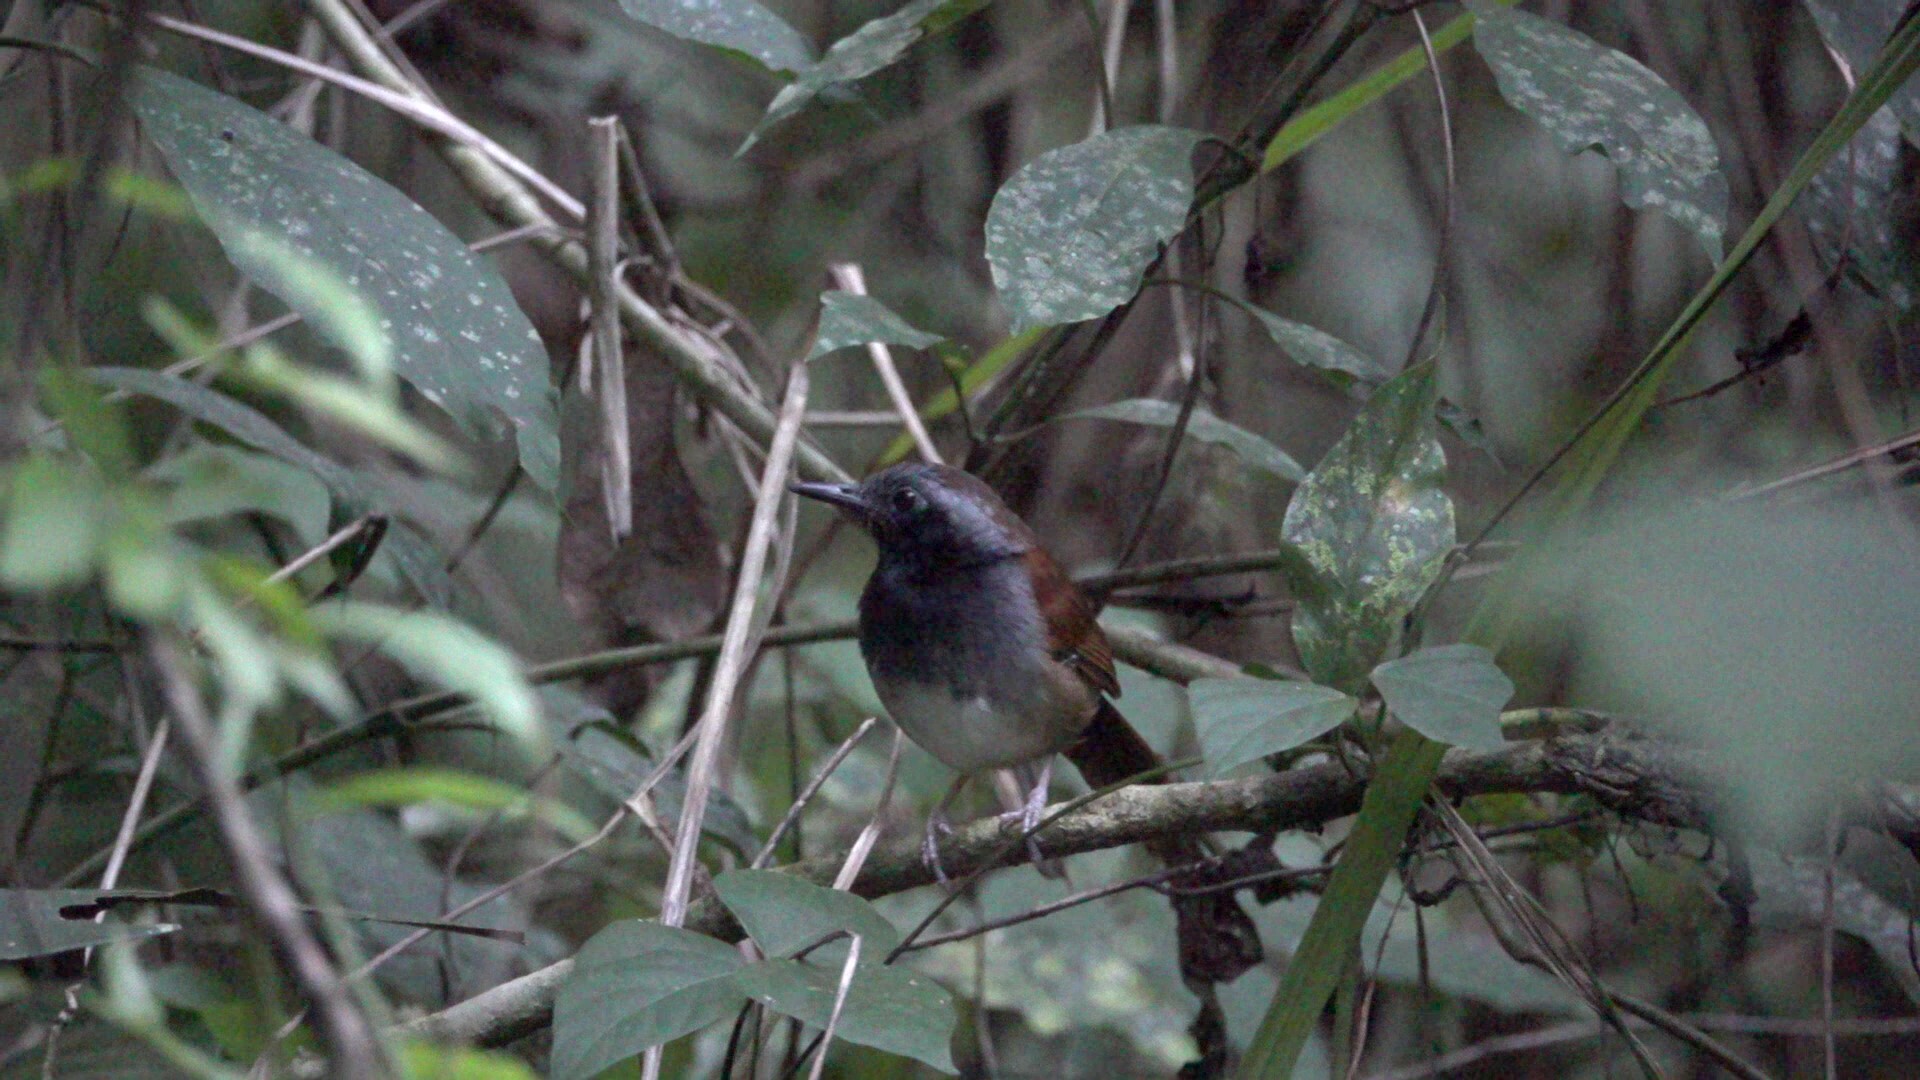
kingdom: Animalia
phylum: Chordata
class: Aves
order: Passeriformes
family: Thamnophilidae
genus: Myrmeciza
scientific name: Myrmeciza longipes
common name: White-bellied antbird
